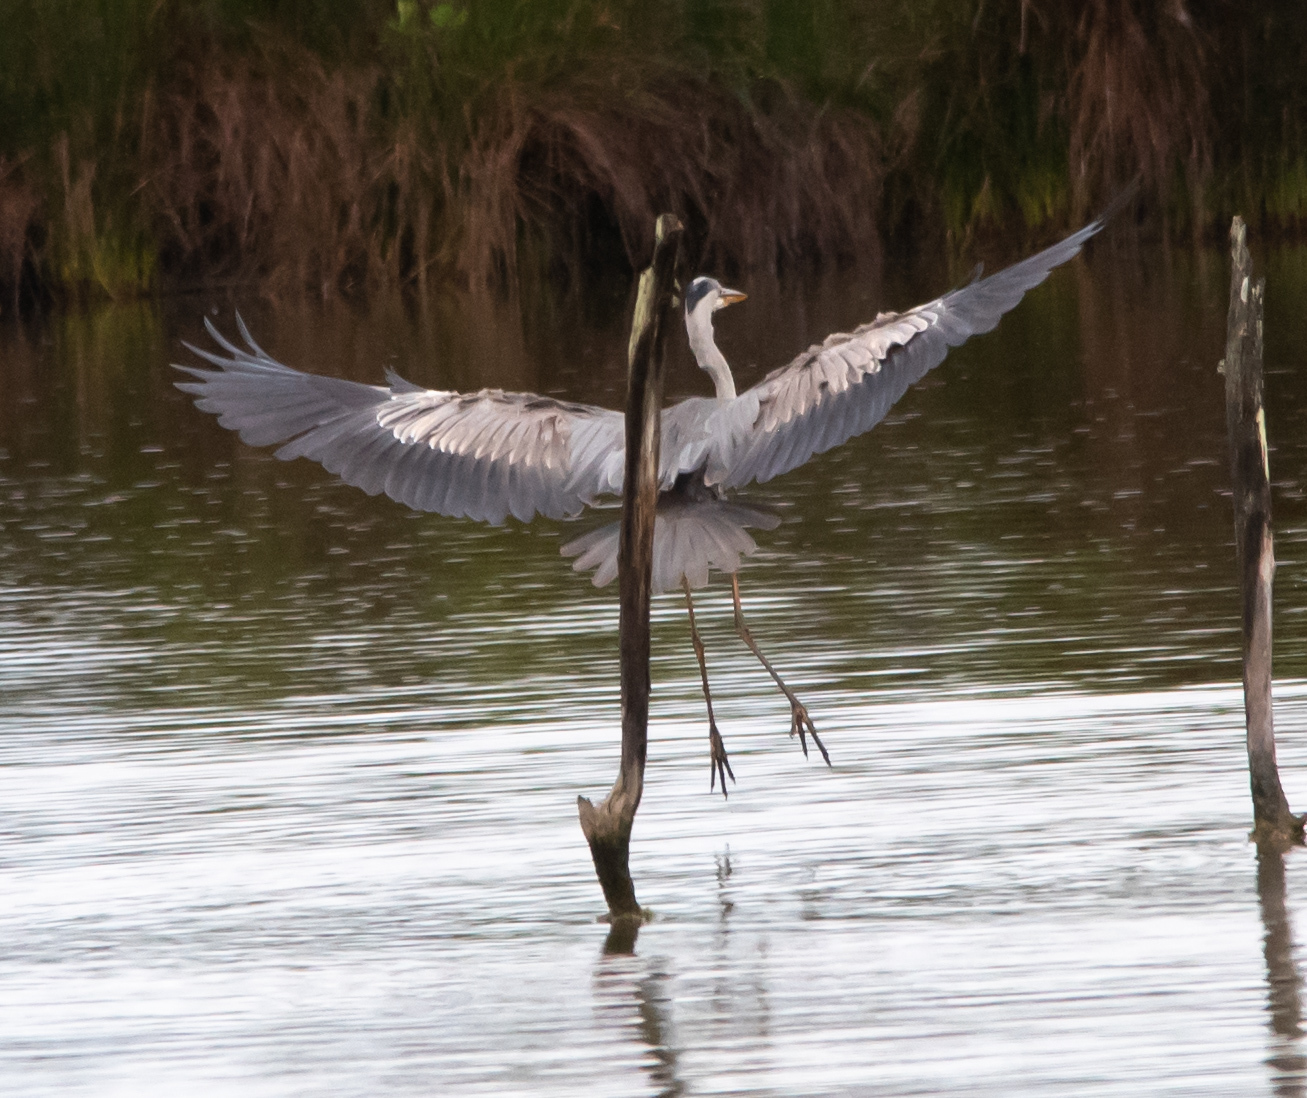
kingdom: Animalia
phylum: Chordata
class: Aves
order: Pelecaniformes
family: Ardeidae
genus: Ardea
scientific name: Ardea cinerea
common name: Grey heron
